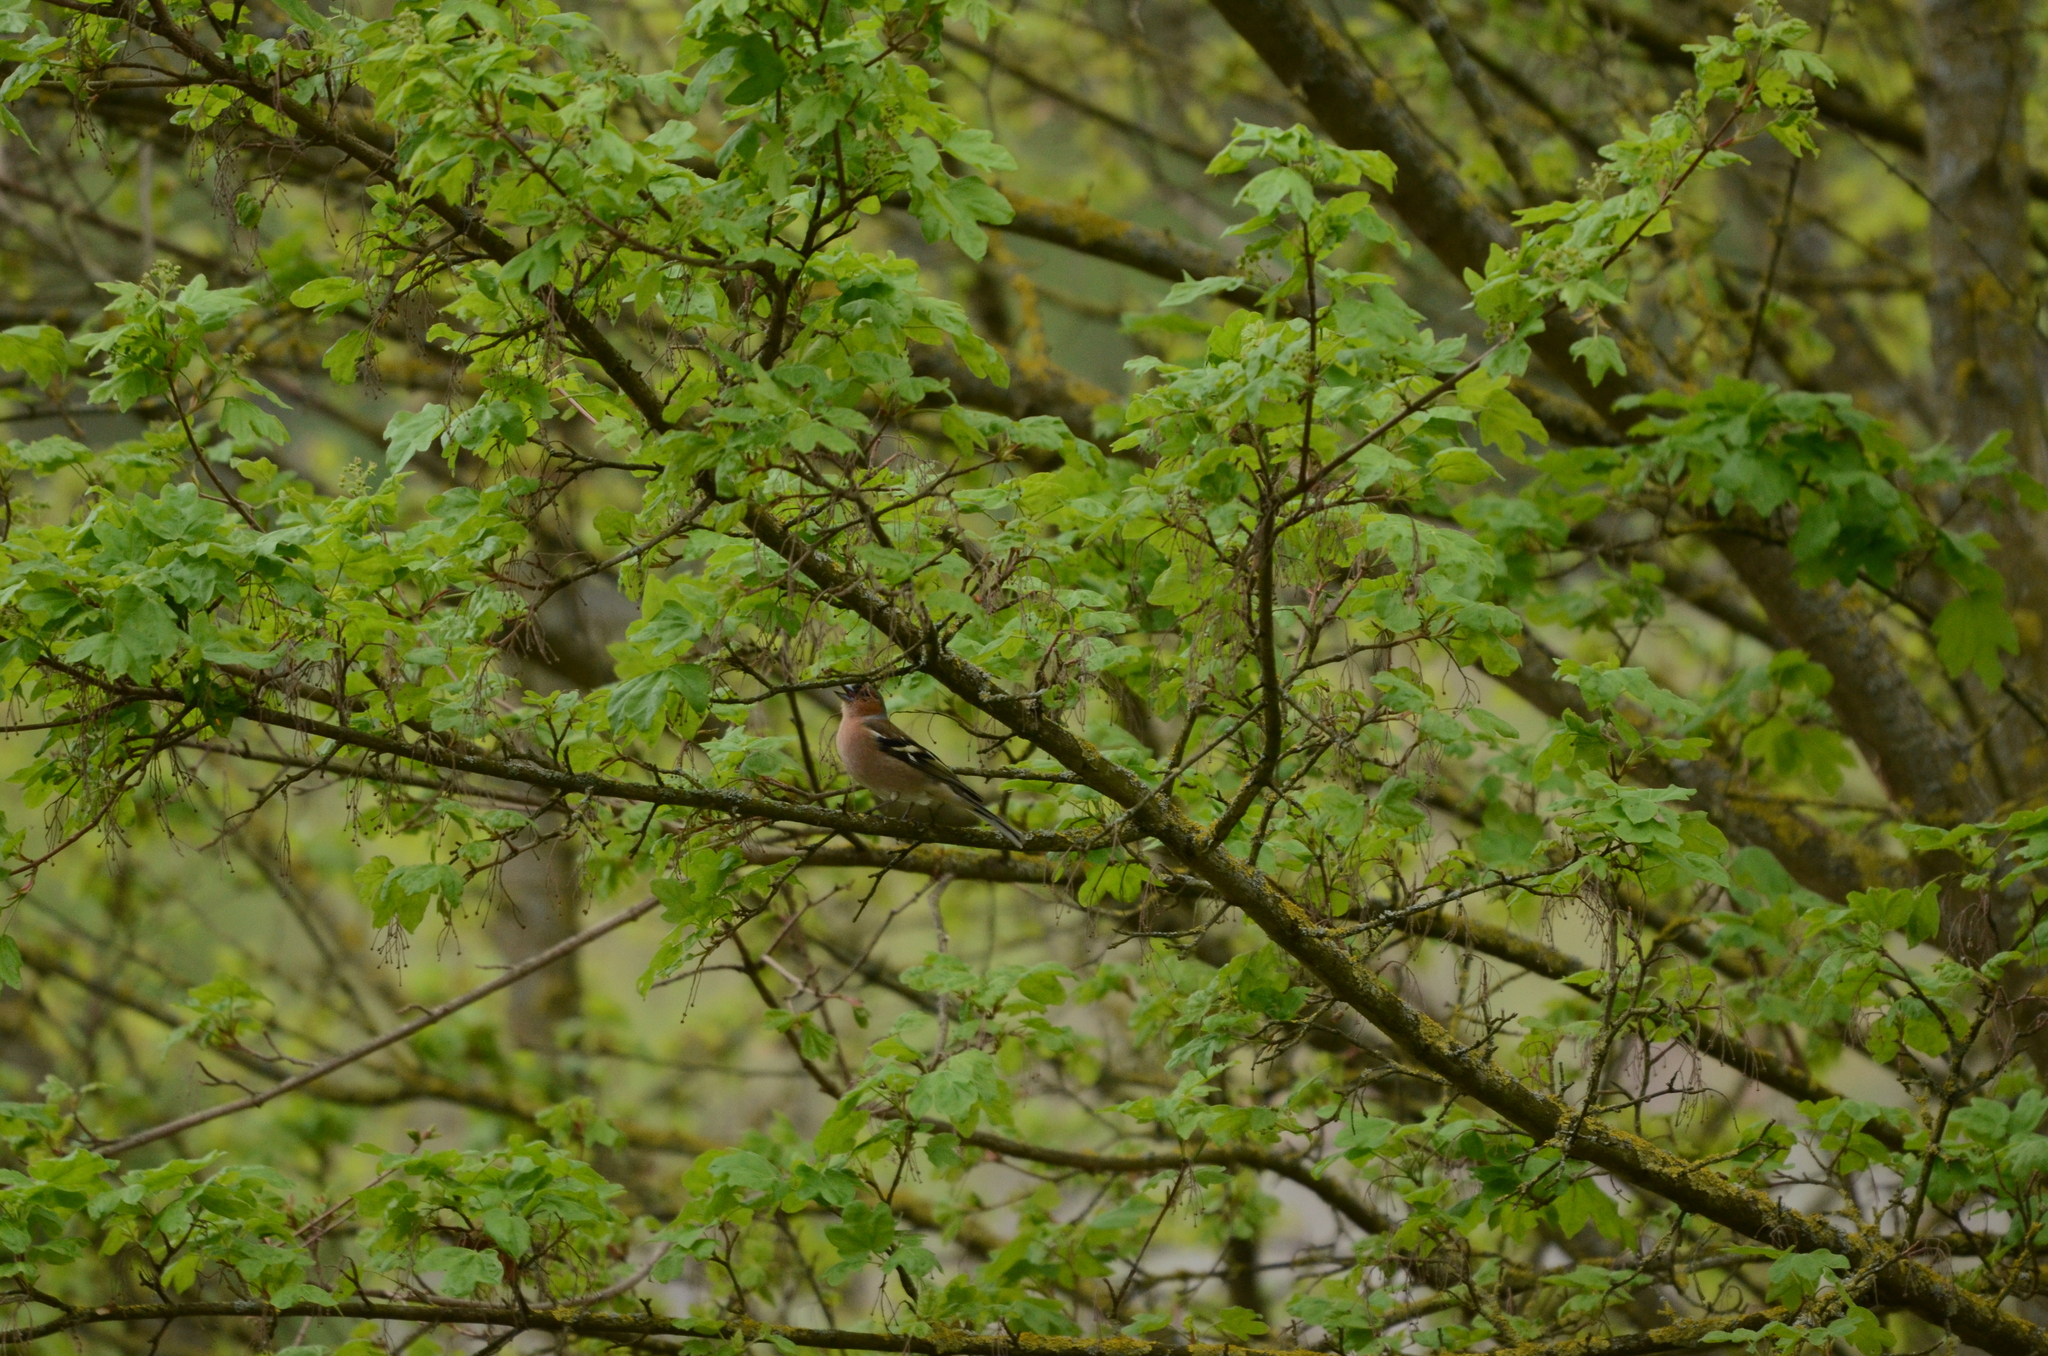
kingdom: Animalia
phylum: Chordata
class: Aves
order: Passeriformes
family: Fringillidae
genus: Fringilla
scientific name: Fringilla coelebs
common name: Common chaffinch
